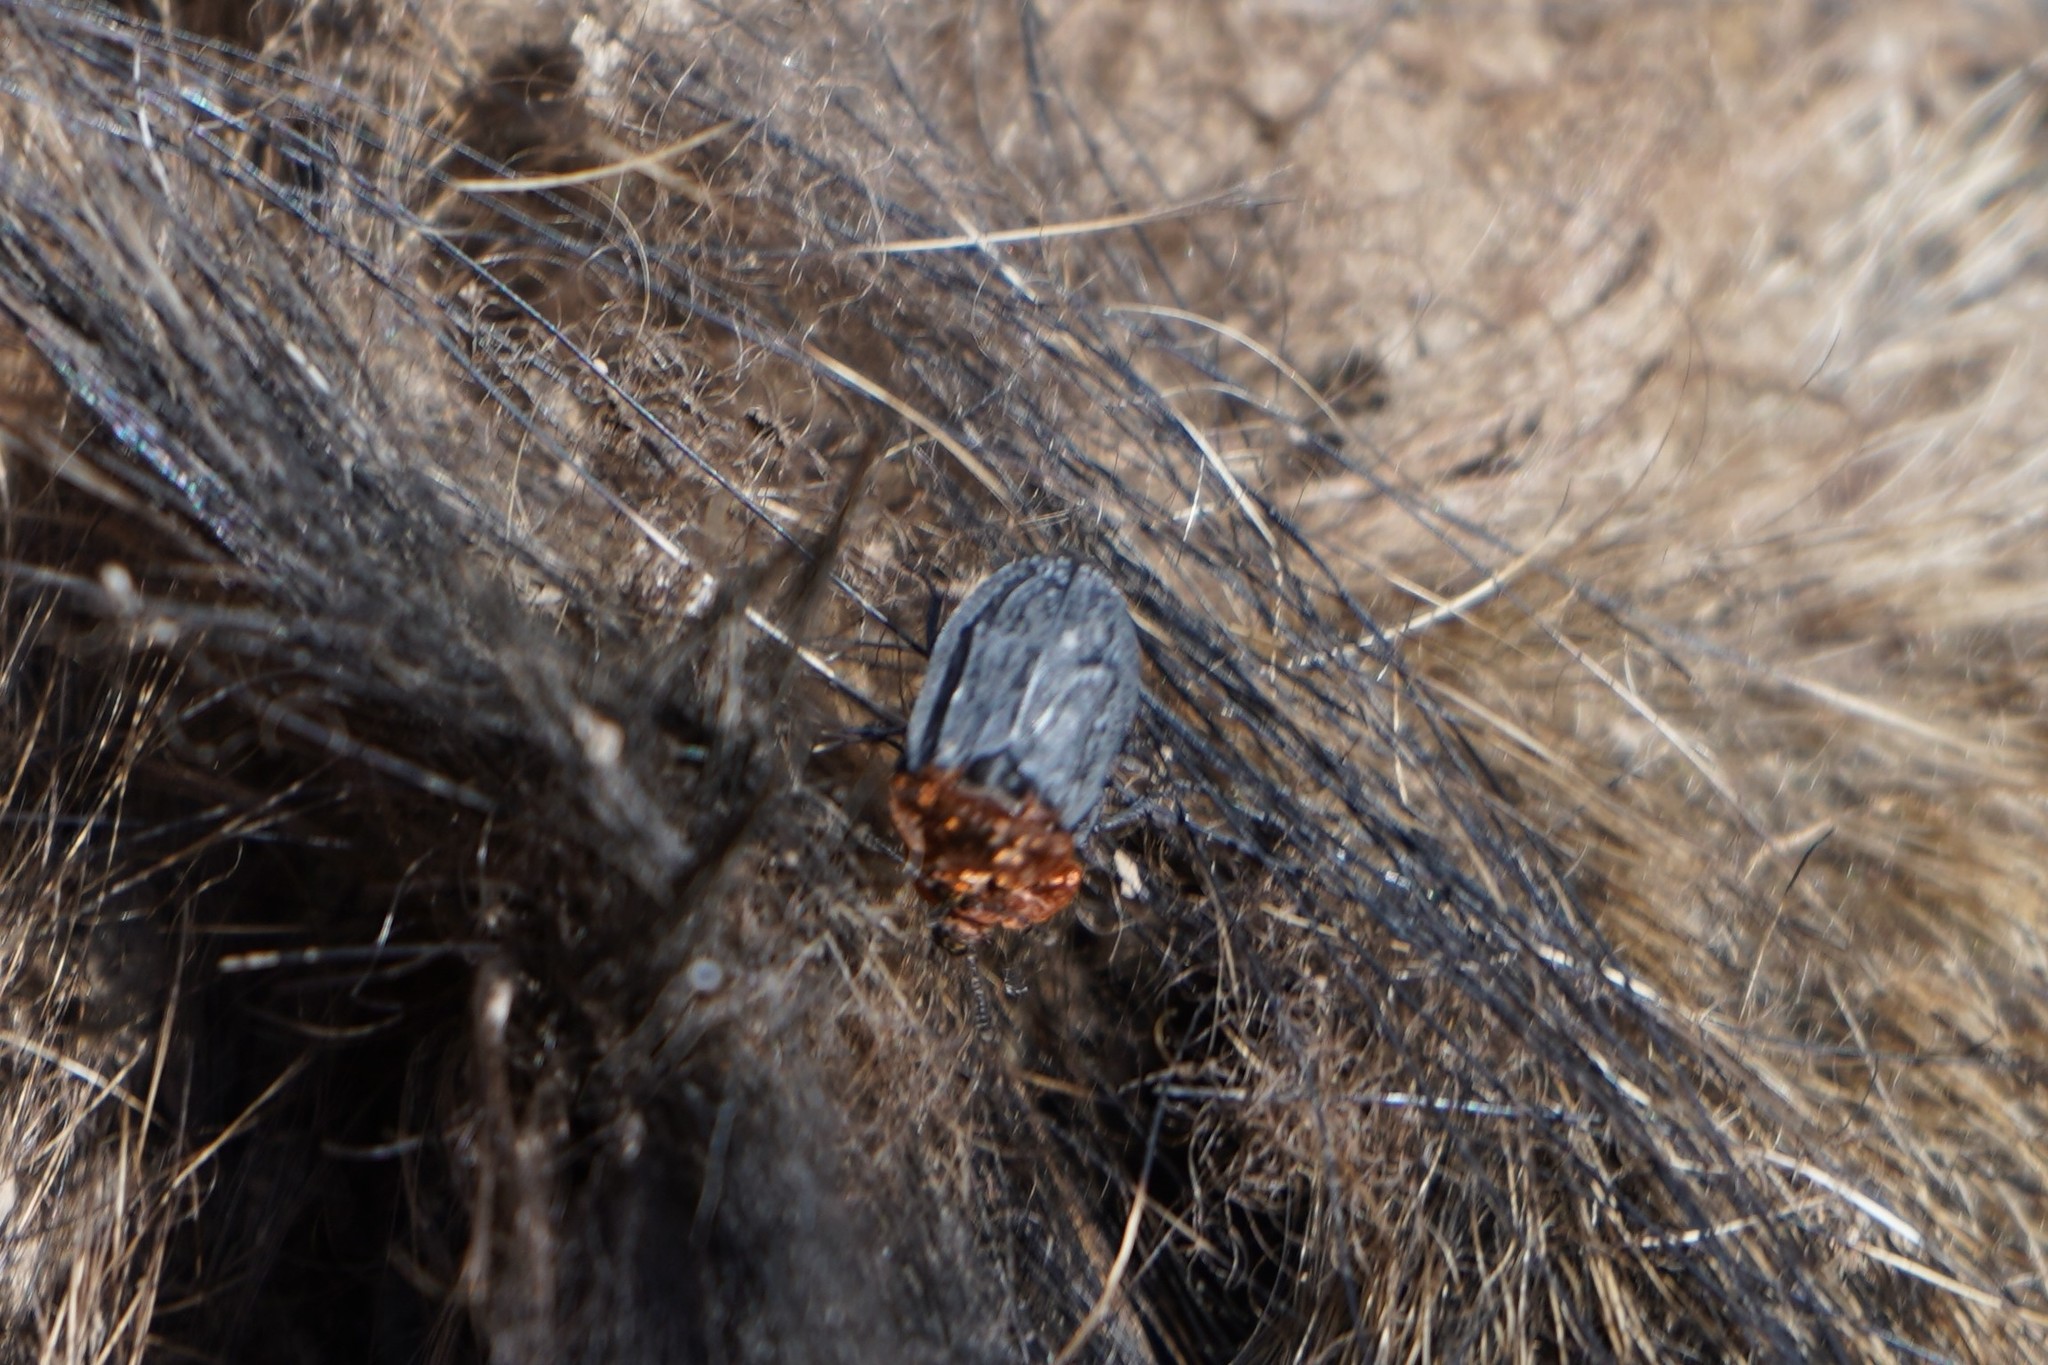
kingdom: Animalia
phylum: Arthropoda
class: Insecta
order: Coleoptera
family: Staphylinidae
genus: Oiceoptoma
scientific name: Oiceoptoma thoracicum
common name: Red-breasted carrion beetle
